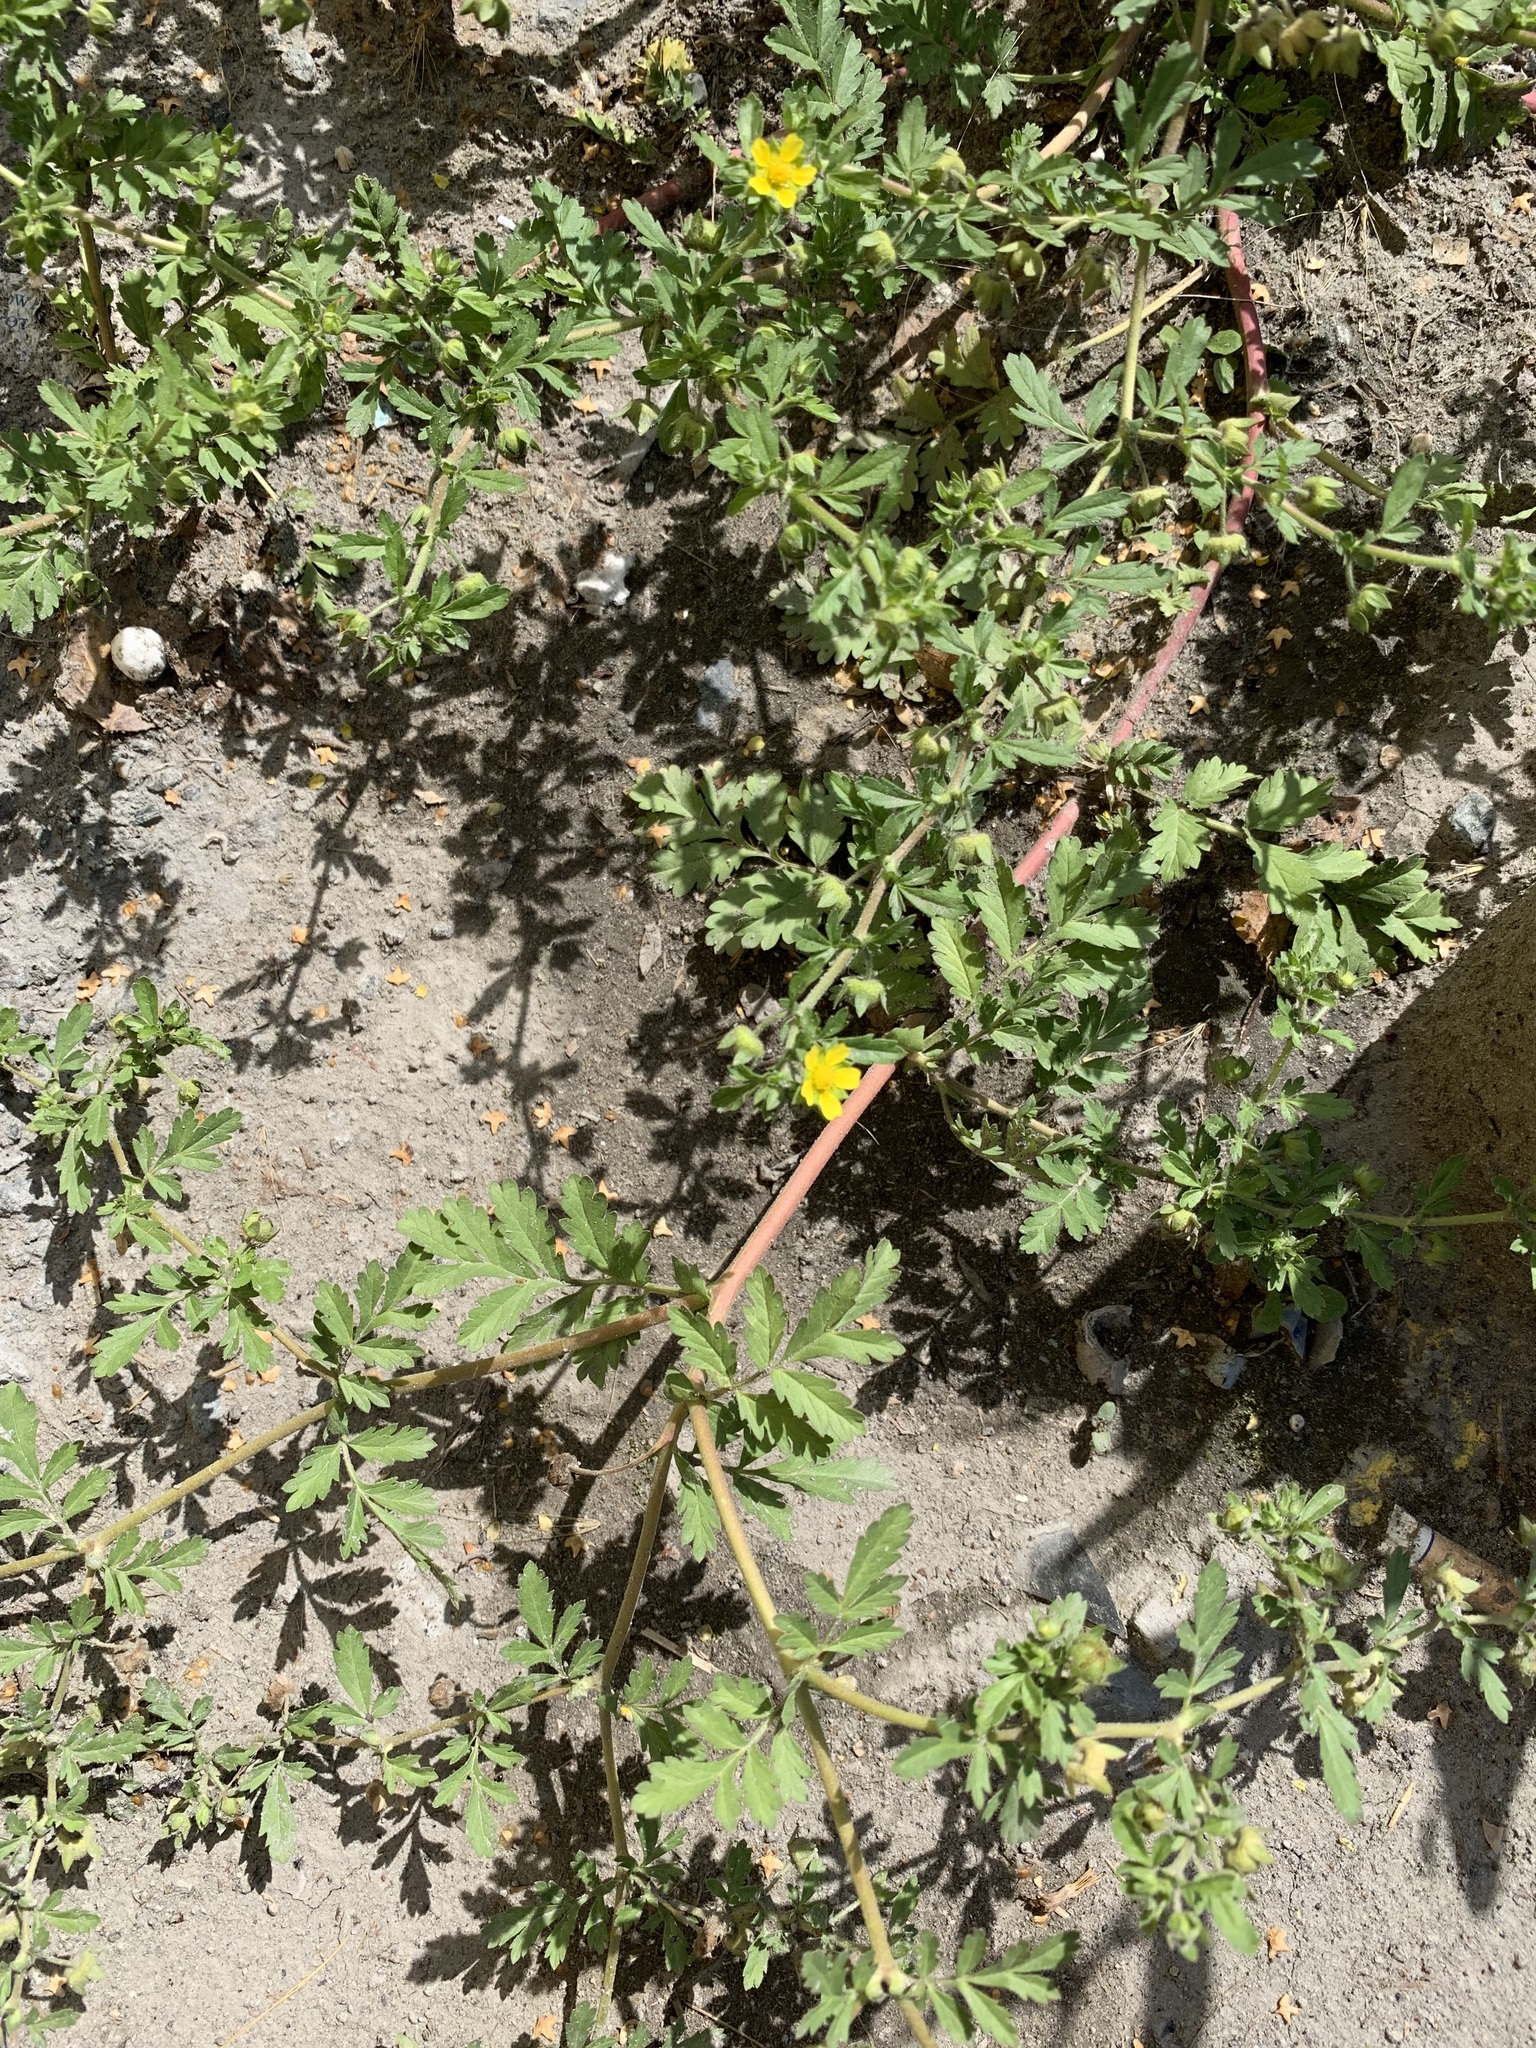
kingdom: Plantae
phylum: Tracheophyta
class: Magnoliopsida
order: Rosales
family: Rosaceae
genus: Potentilla
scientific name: Potentilla supina
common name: Prostrate cinquefoil
